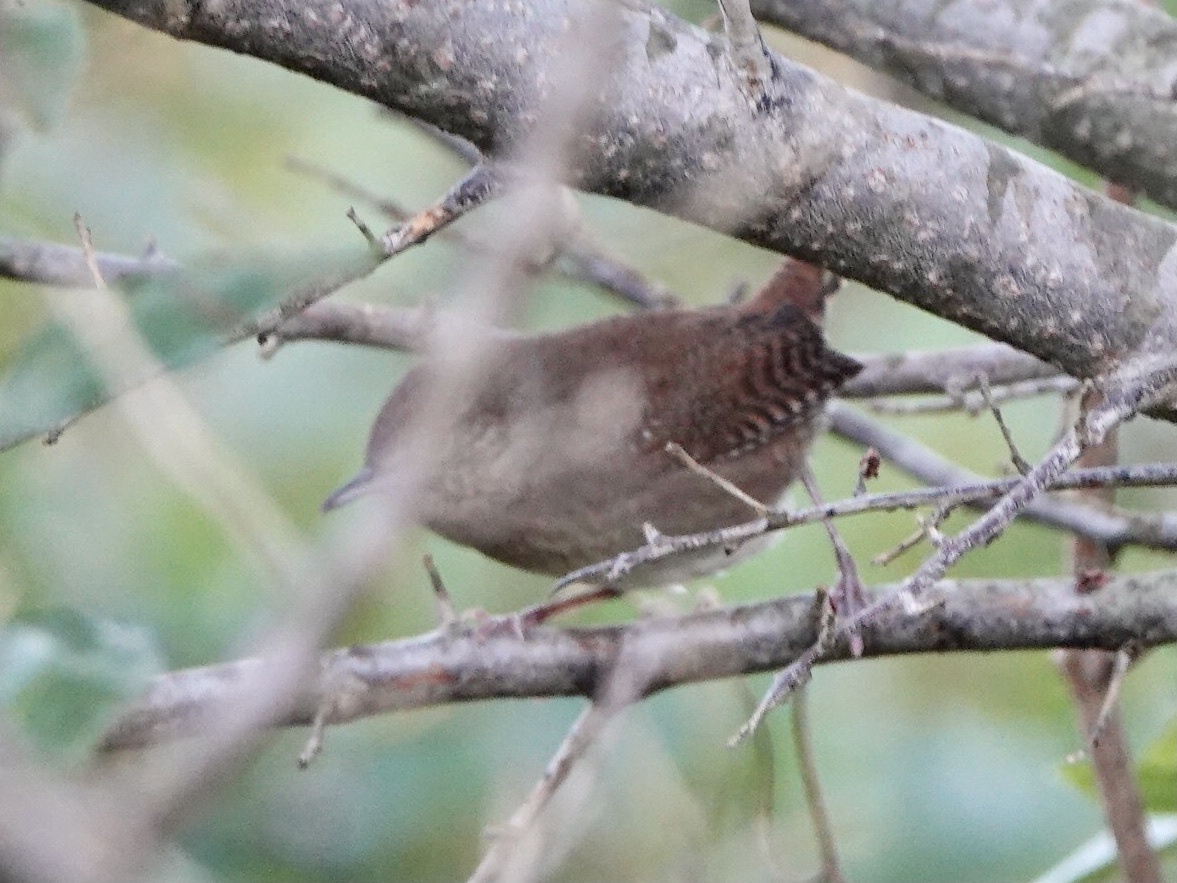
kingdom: Animalia
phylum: Chordata
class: Aves
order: Passeriformes
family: Troglodytidae
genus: Troglodytes
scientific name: Troglodytes aedon
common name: House wren
